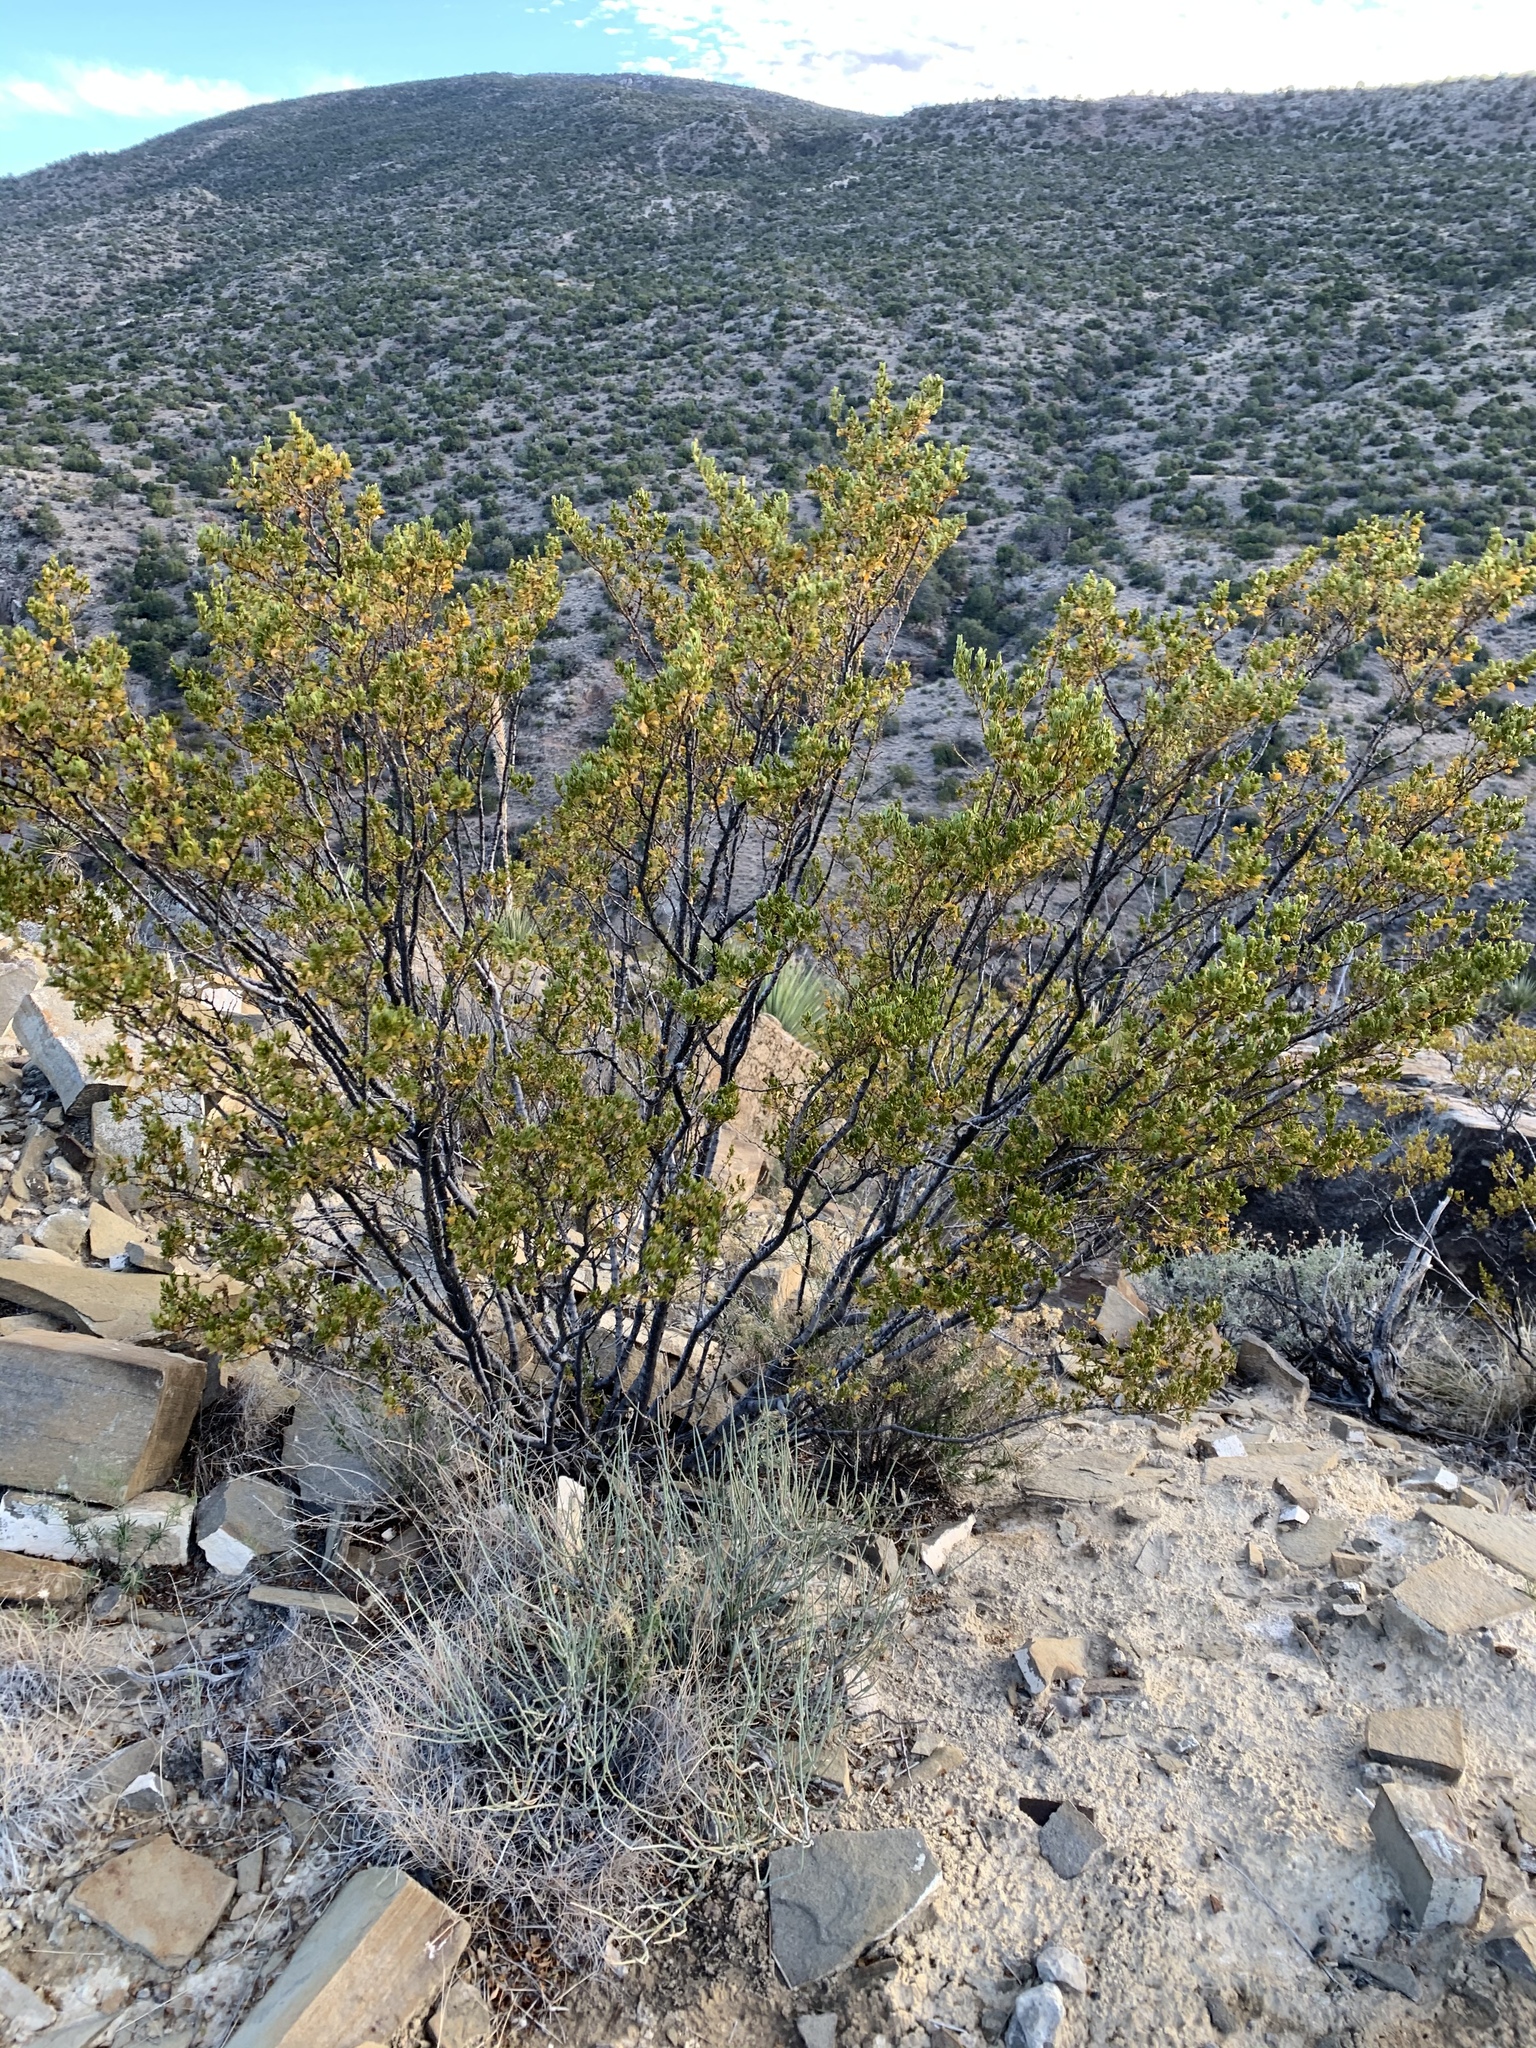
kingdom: Plantae
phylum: Tracheophyta
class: Magnoliopsida
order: Zygophyllales
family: Zygophyllaceae
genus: Larrea
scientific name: Larrea tridentata
